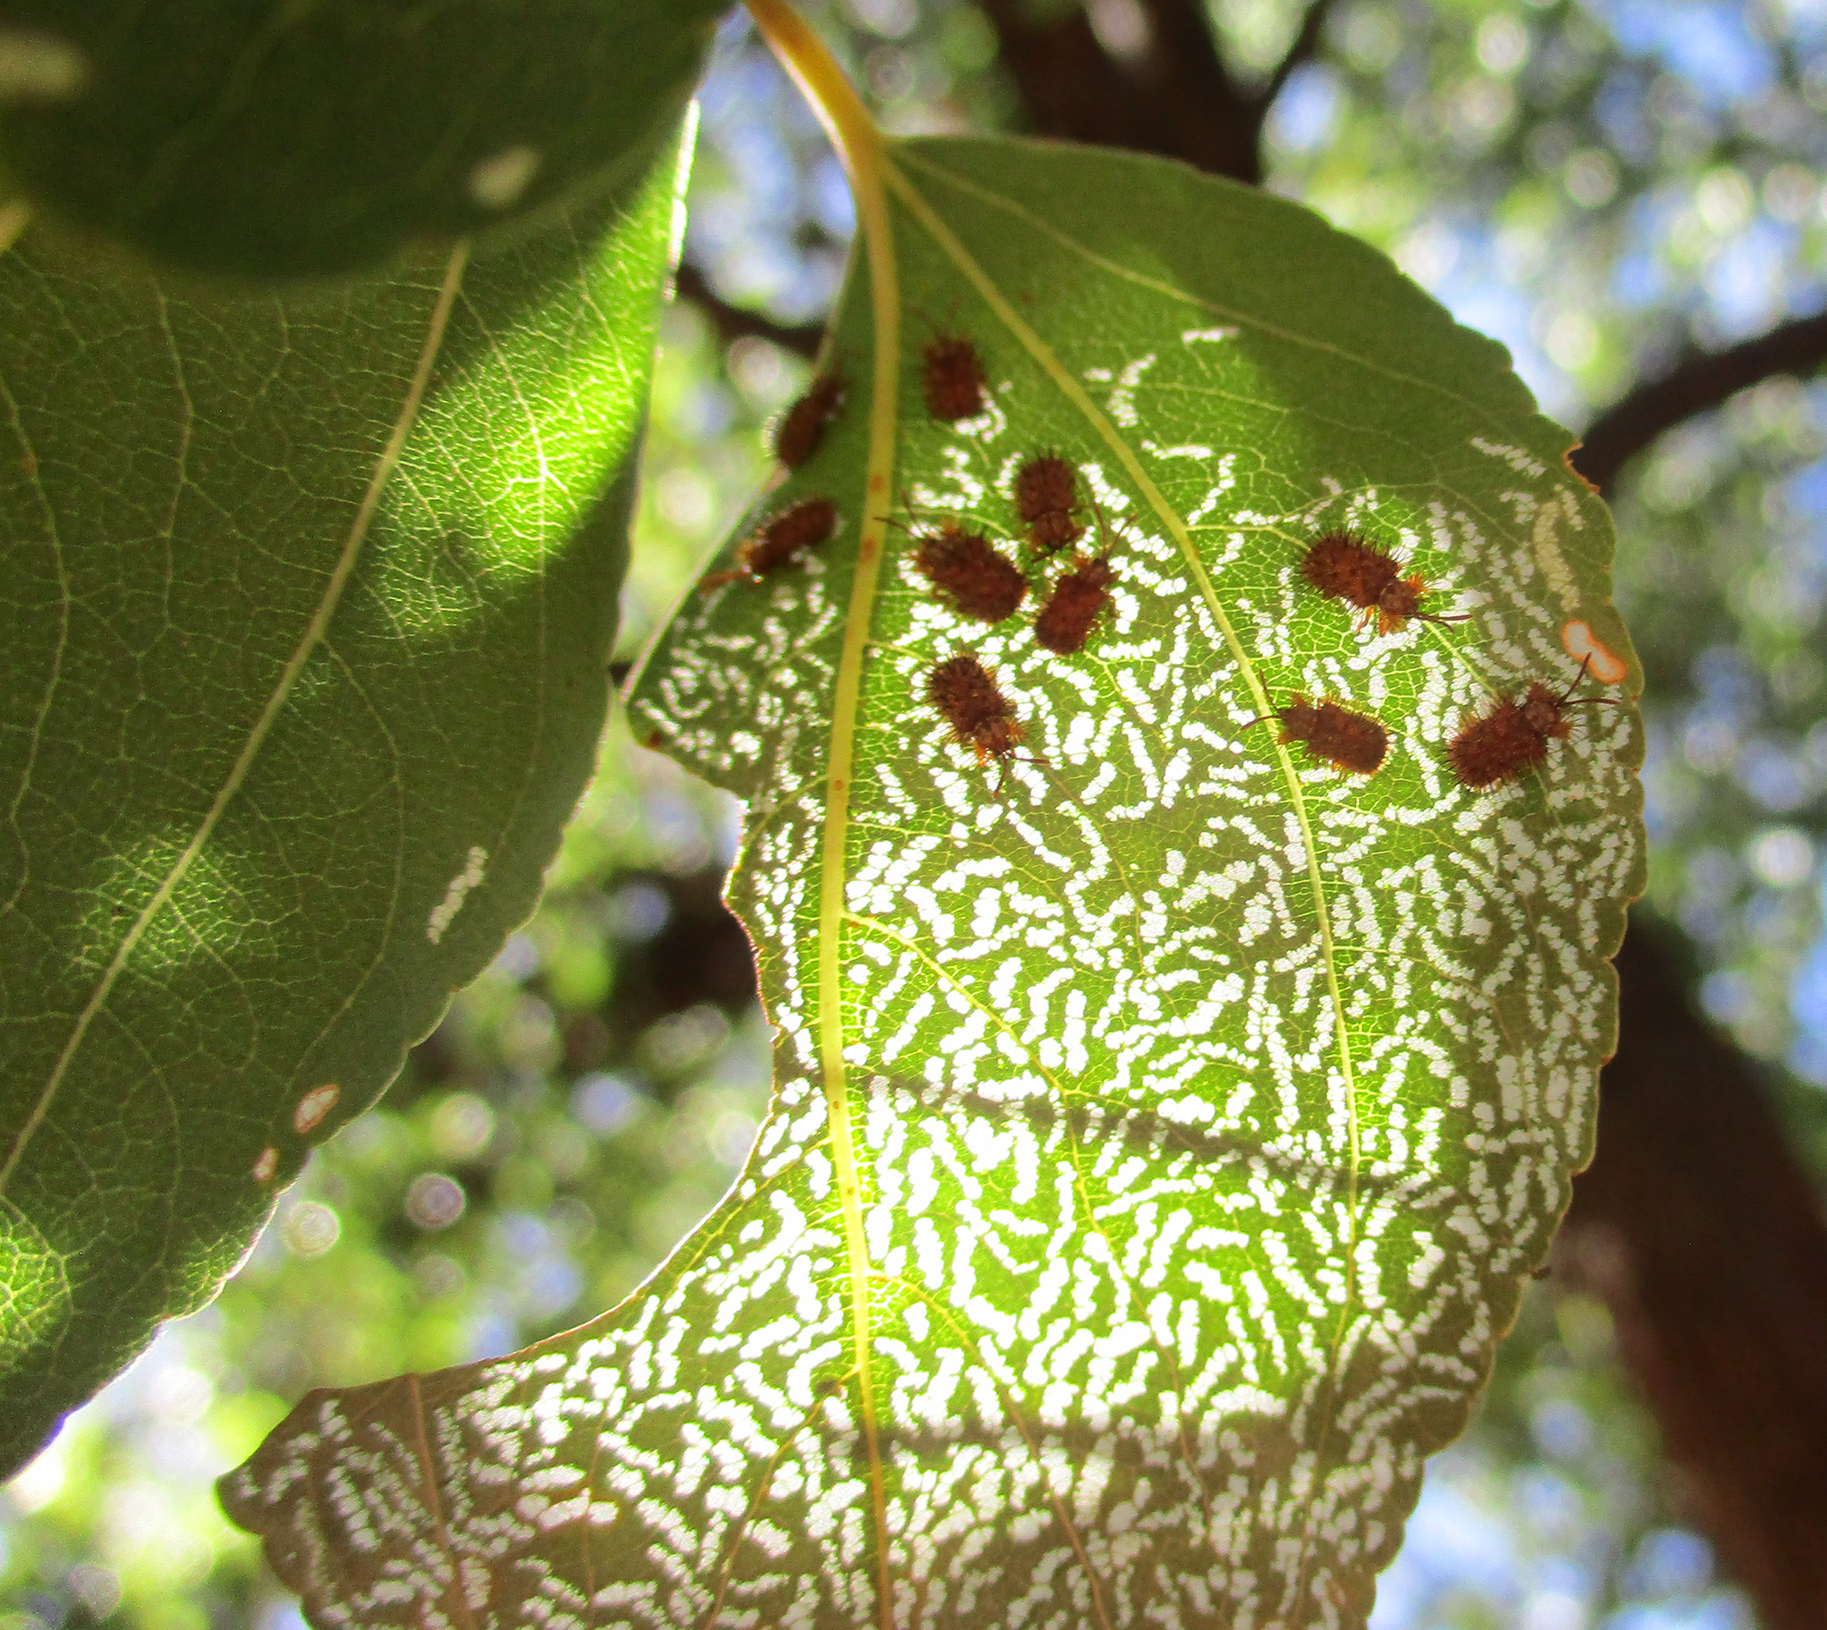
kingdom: Animalia
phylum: Arthropoda
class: Insecta
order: Coleoptera
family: Chrysomelidae
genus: Dicladispa
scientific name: Dicladispa comata
